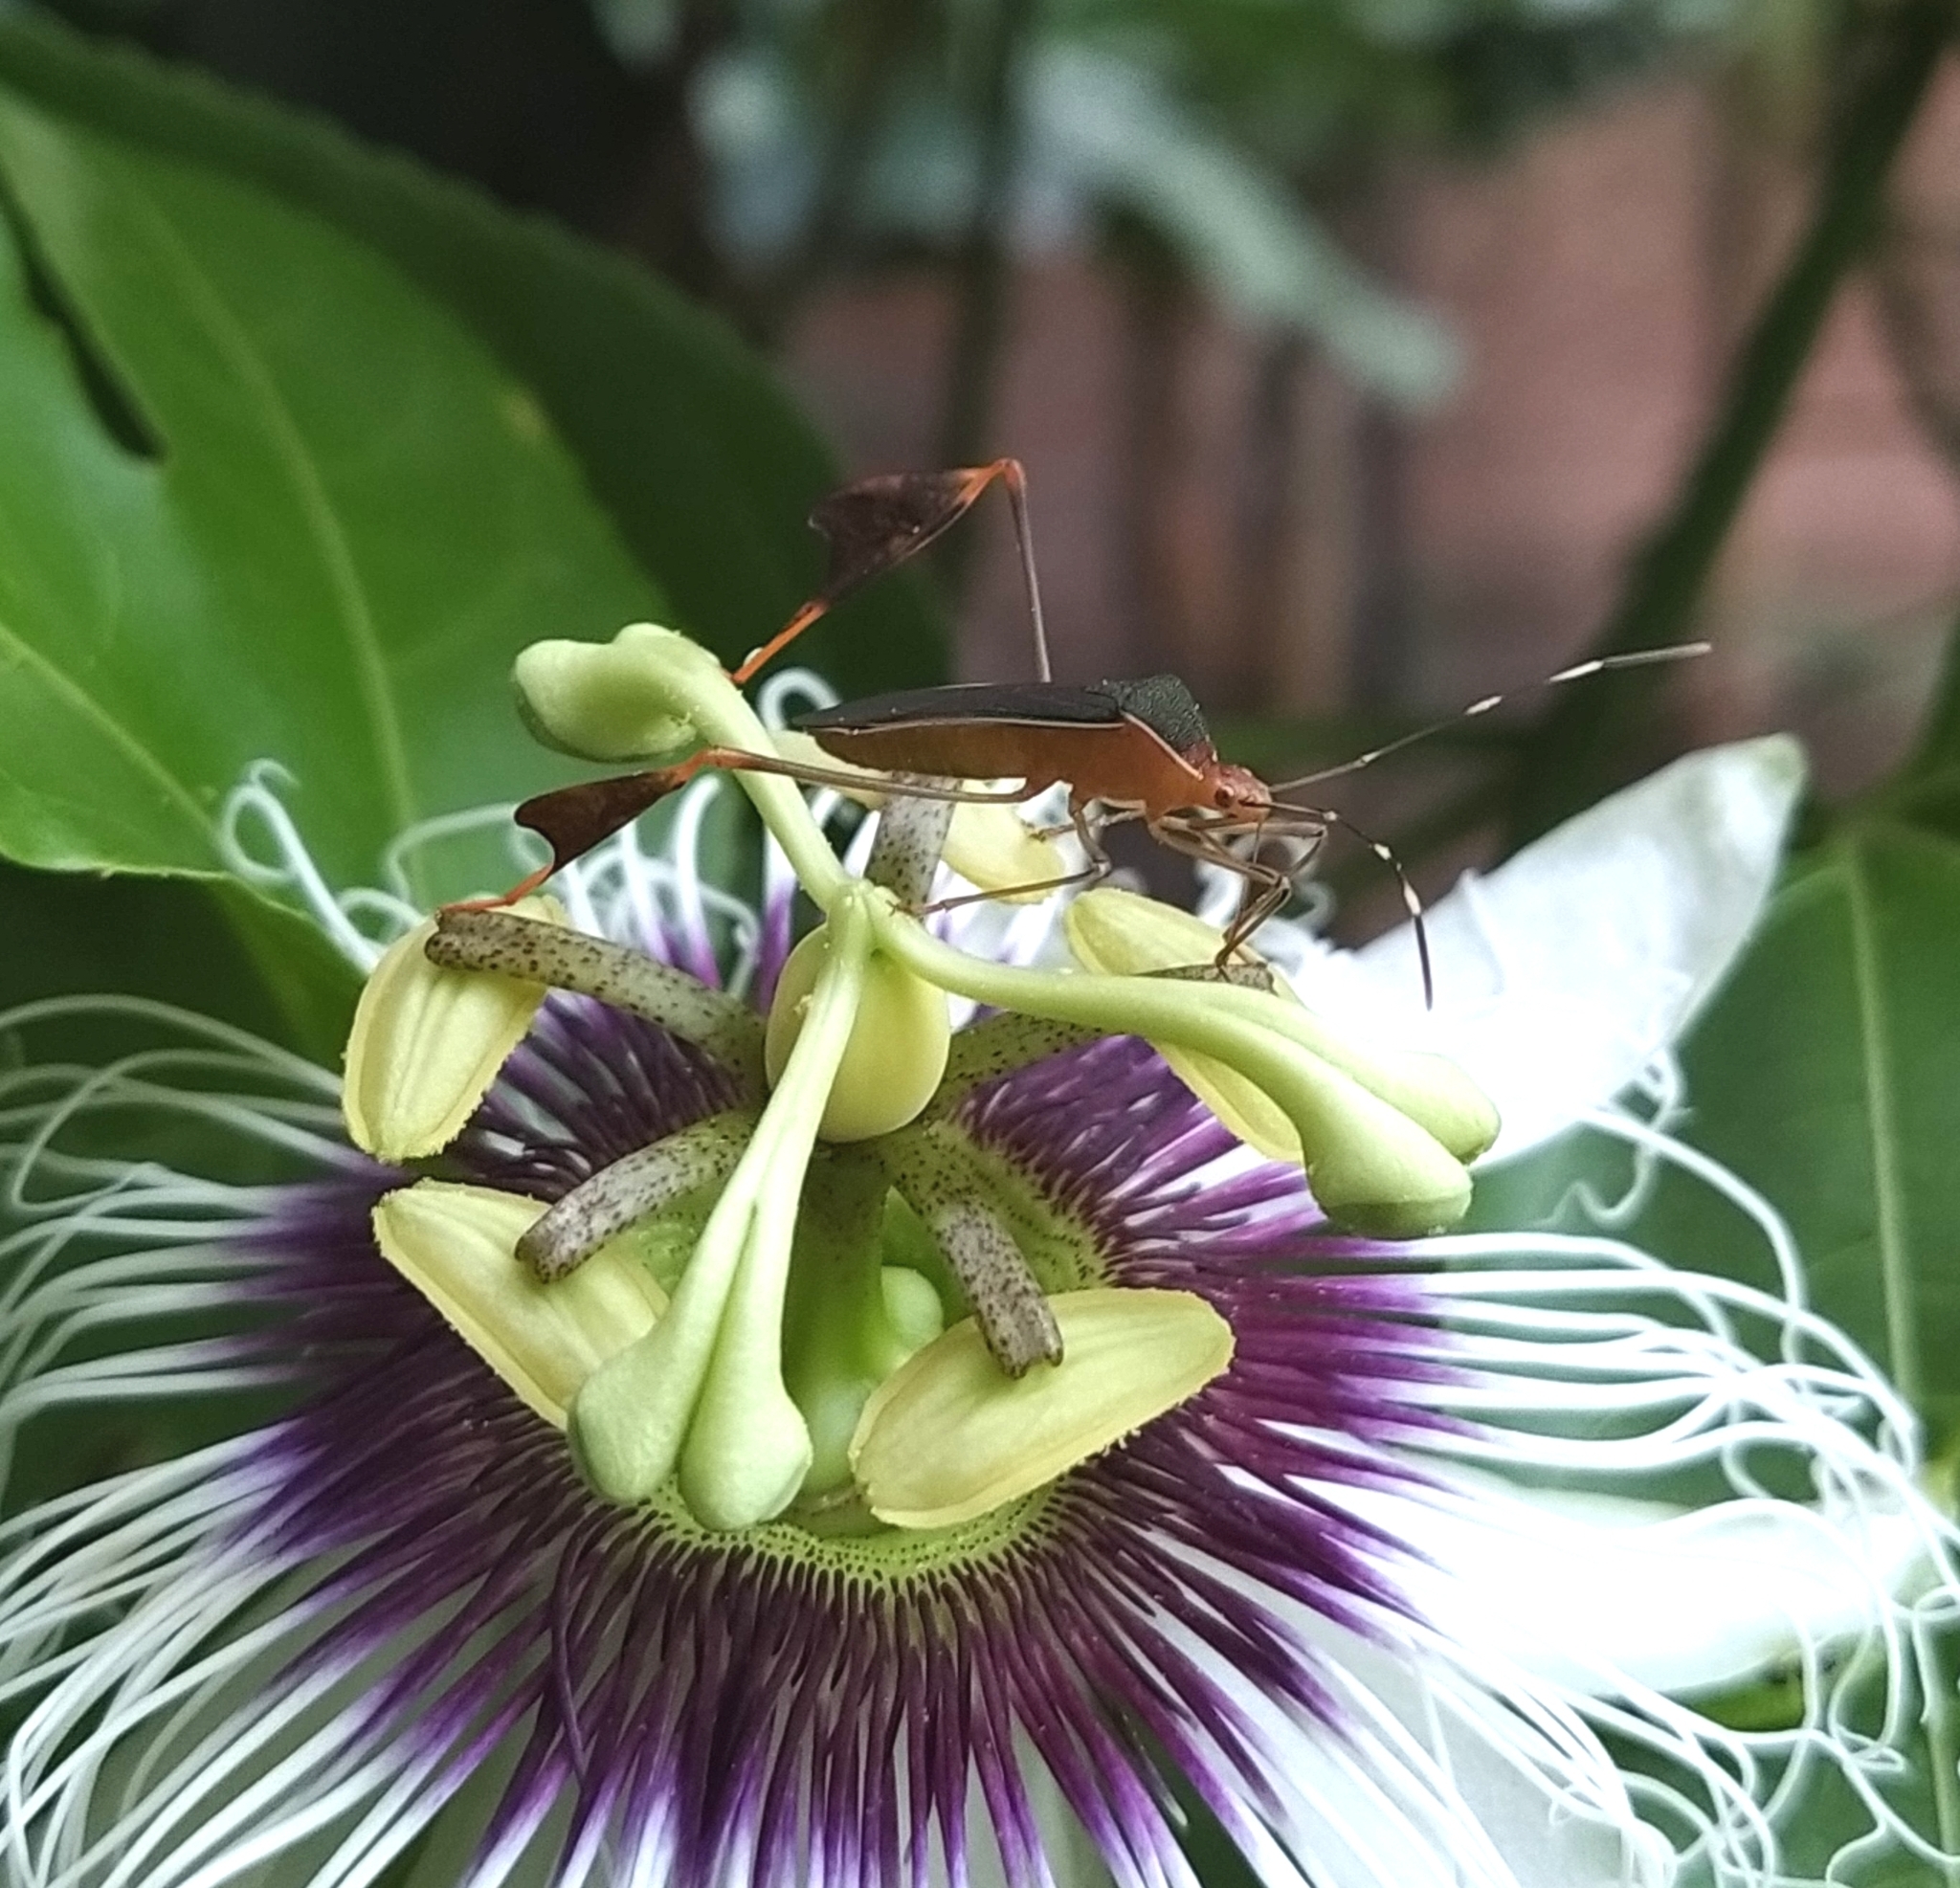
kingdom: Animalia
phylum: Arthropoda
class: Insecta
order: Hemiptera
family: Coreidae
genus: Anisoscelis
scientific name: Anisoscelis marginellus
